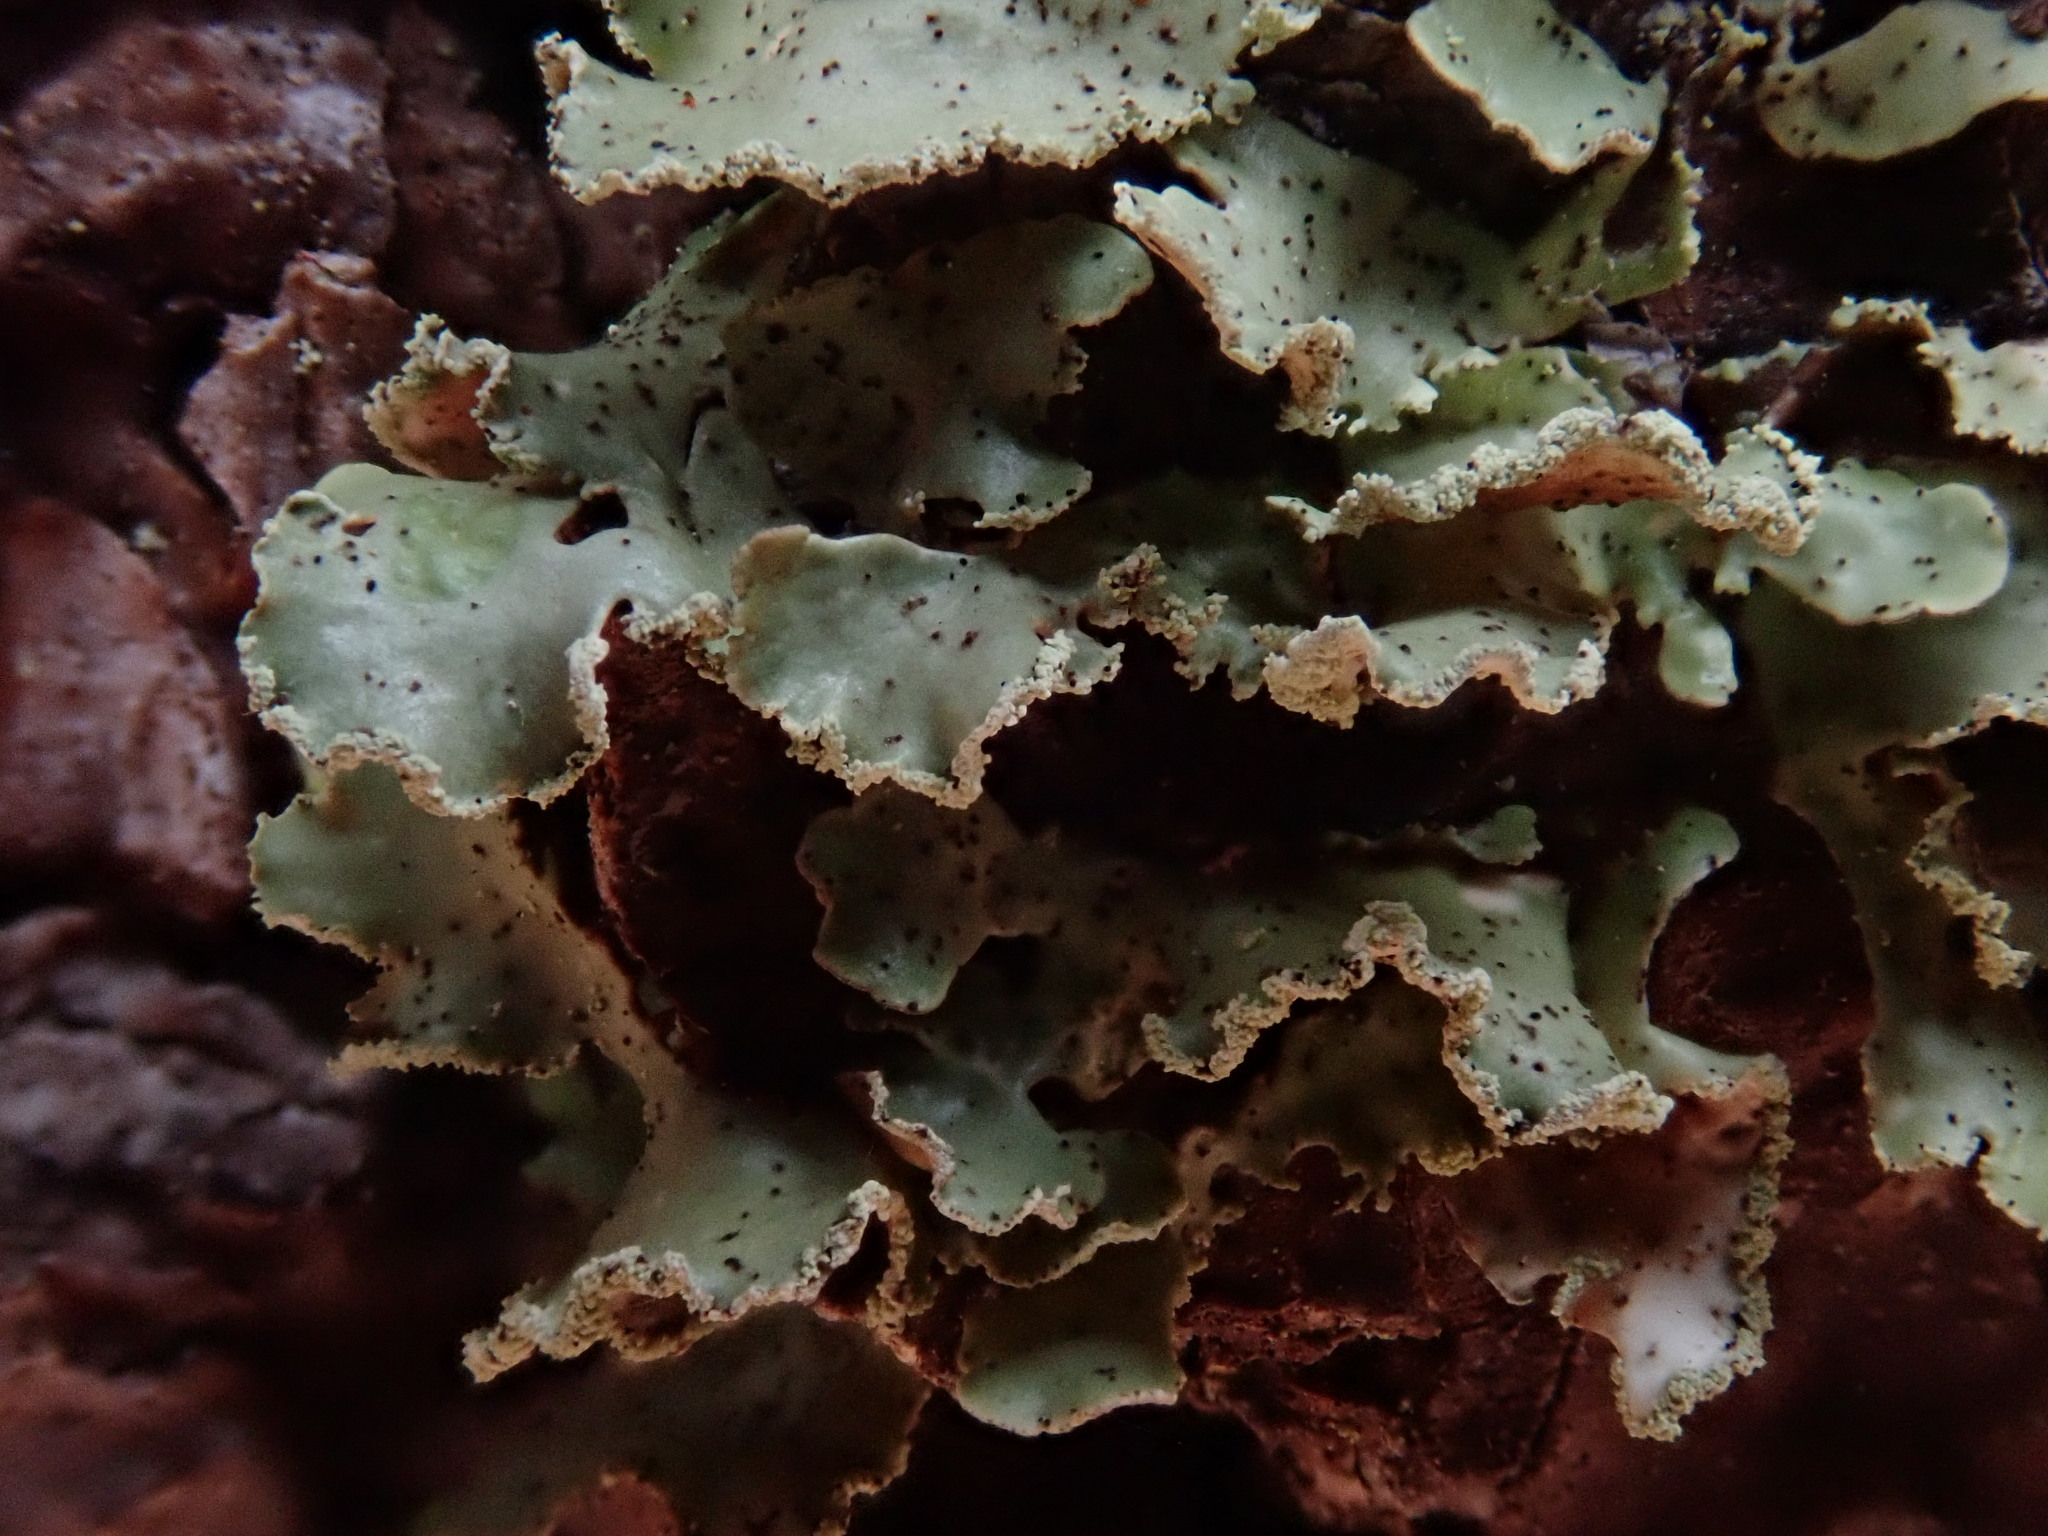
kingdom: Fungi
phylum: Ascomycota
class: Lecanoromycetes
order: Lecanorales
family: Parmeliaceae
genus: Usnocetraria
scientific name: Usnocetraria oakesiana
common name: Yellow ribbon lichen
